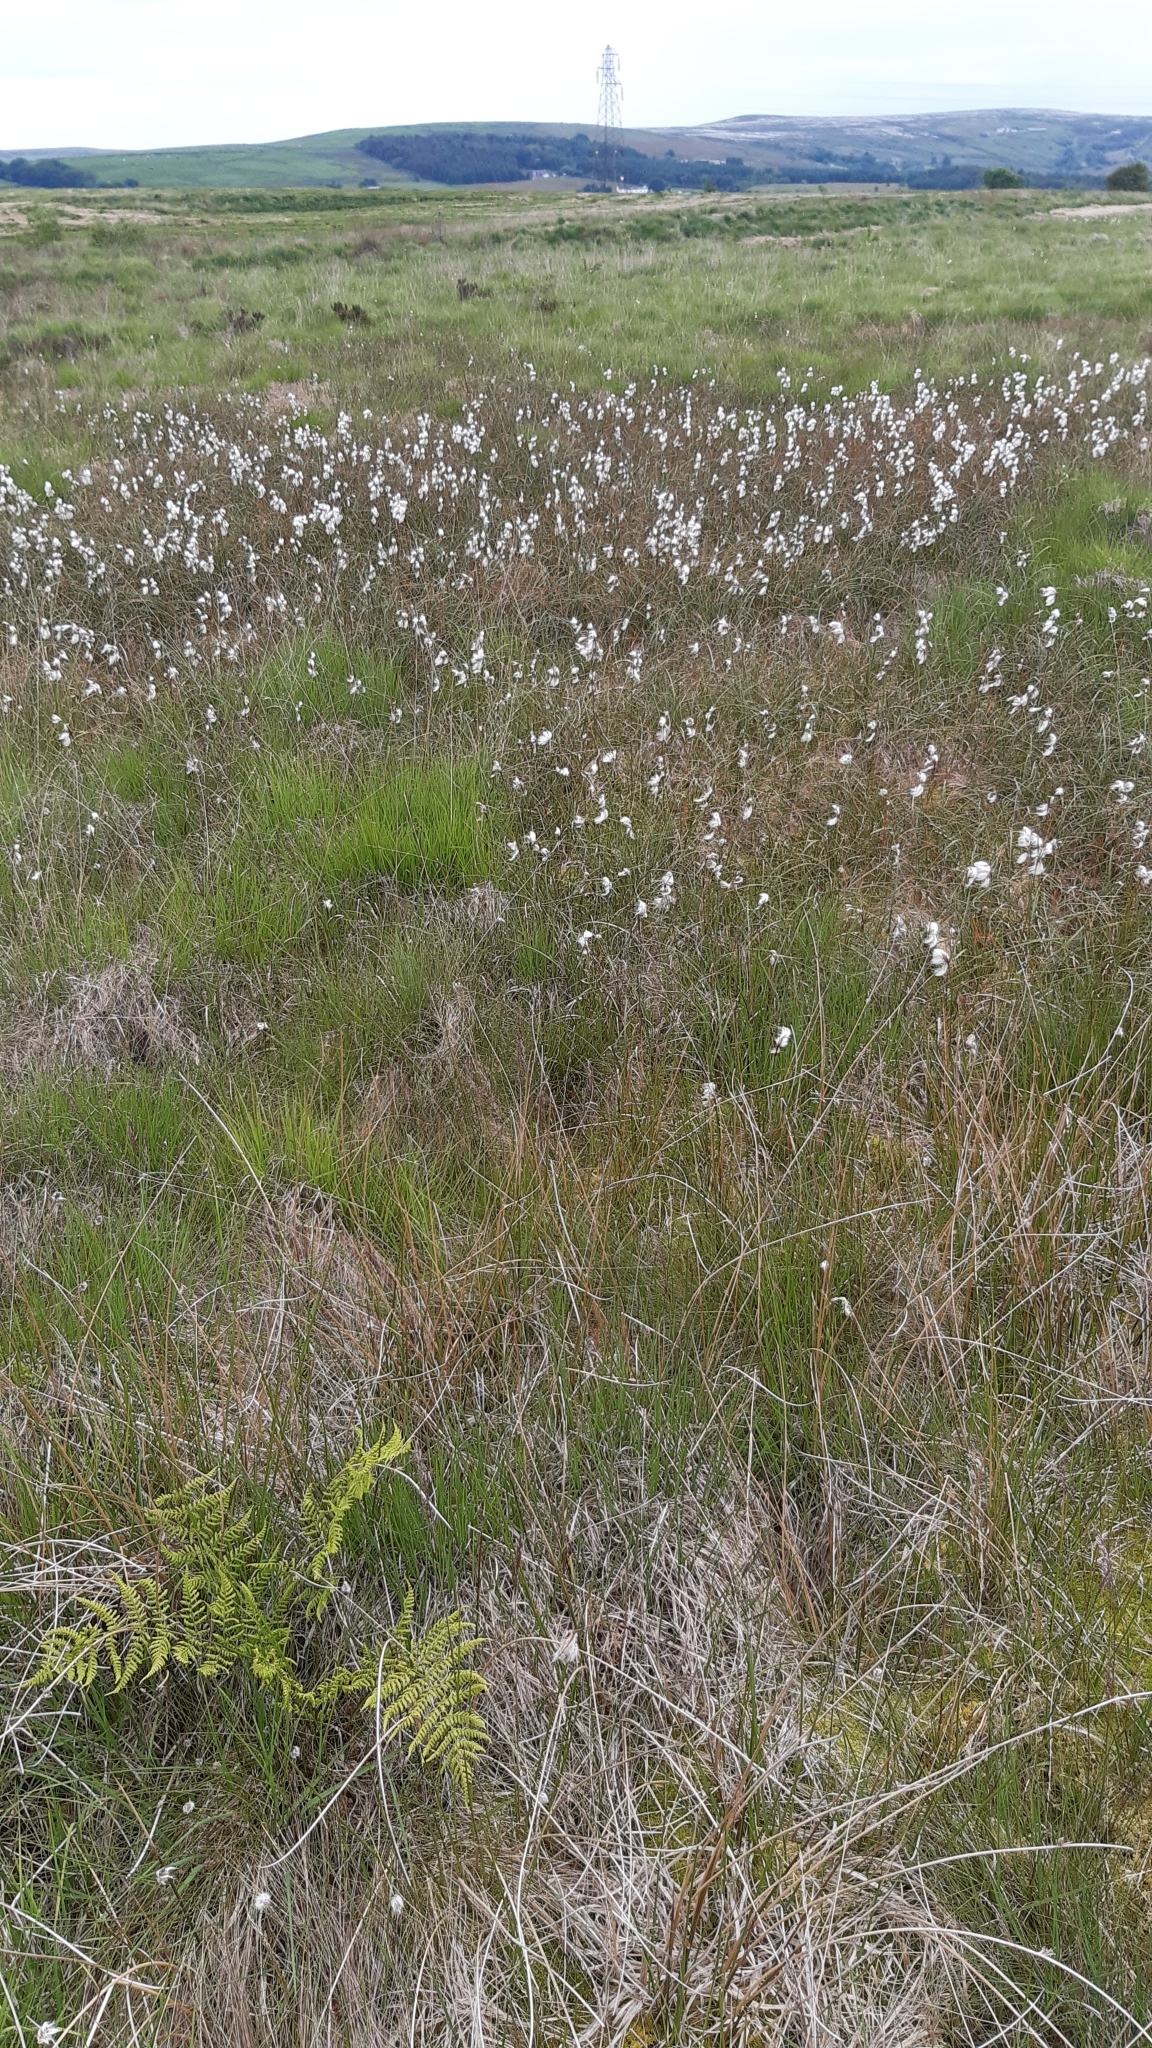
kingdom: Plantae
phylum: Tracheophyta
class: Liliopsida
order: Poales
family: Cyperaceae
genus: Eriophorum
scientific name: Eriophorum angustifolium
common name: Common cottongrass
